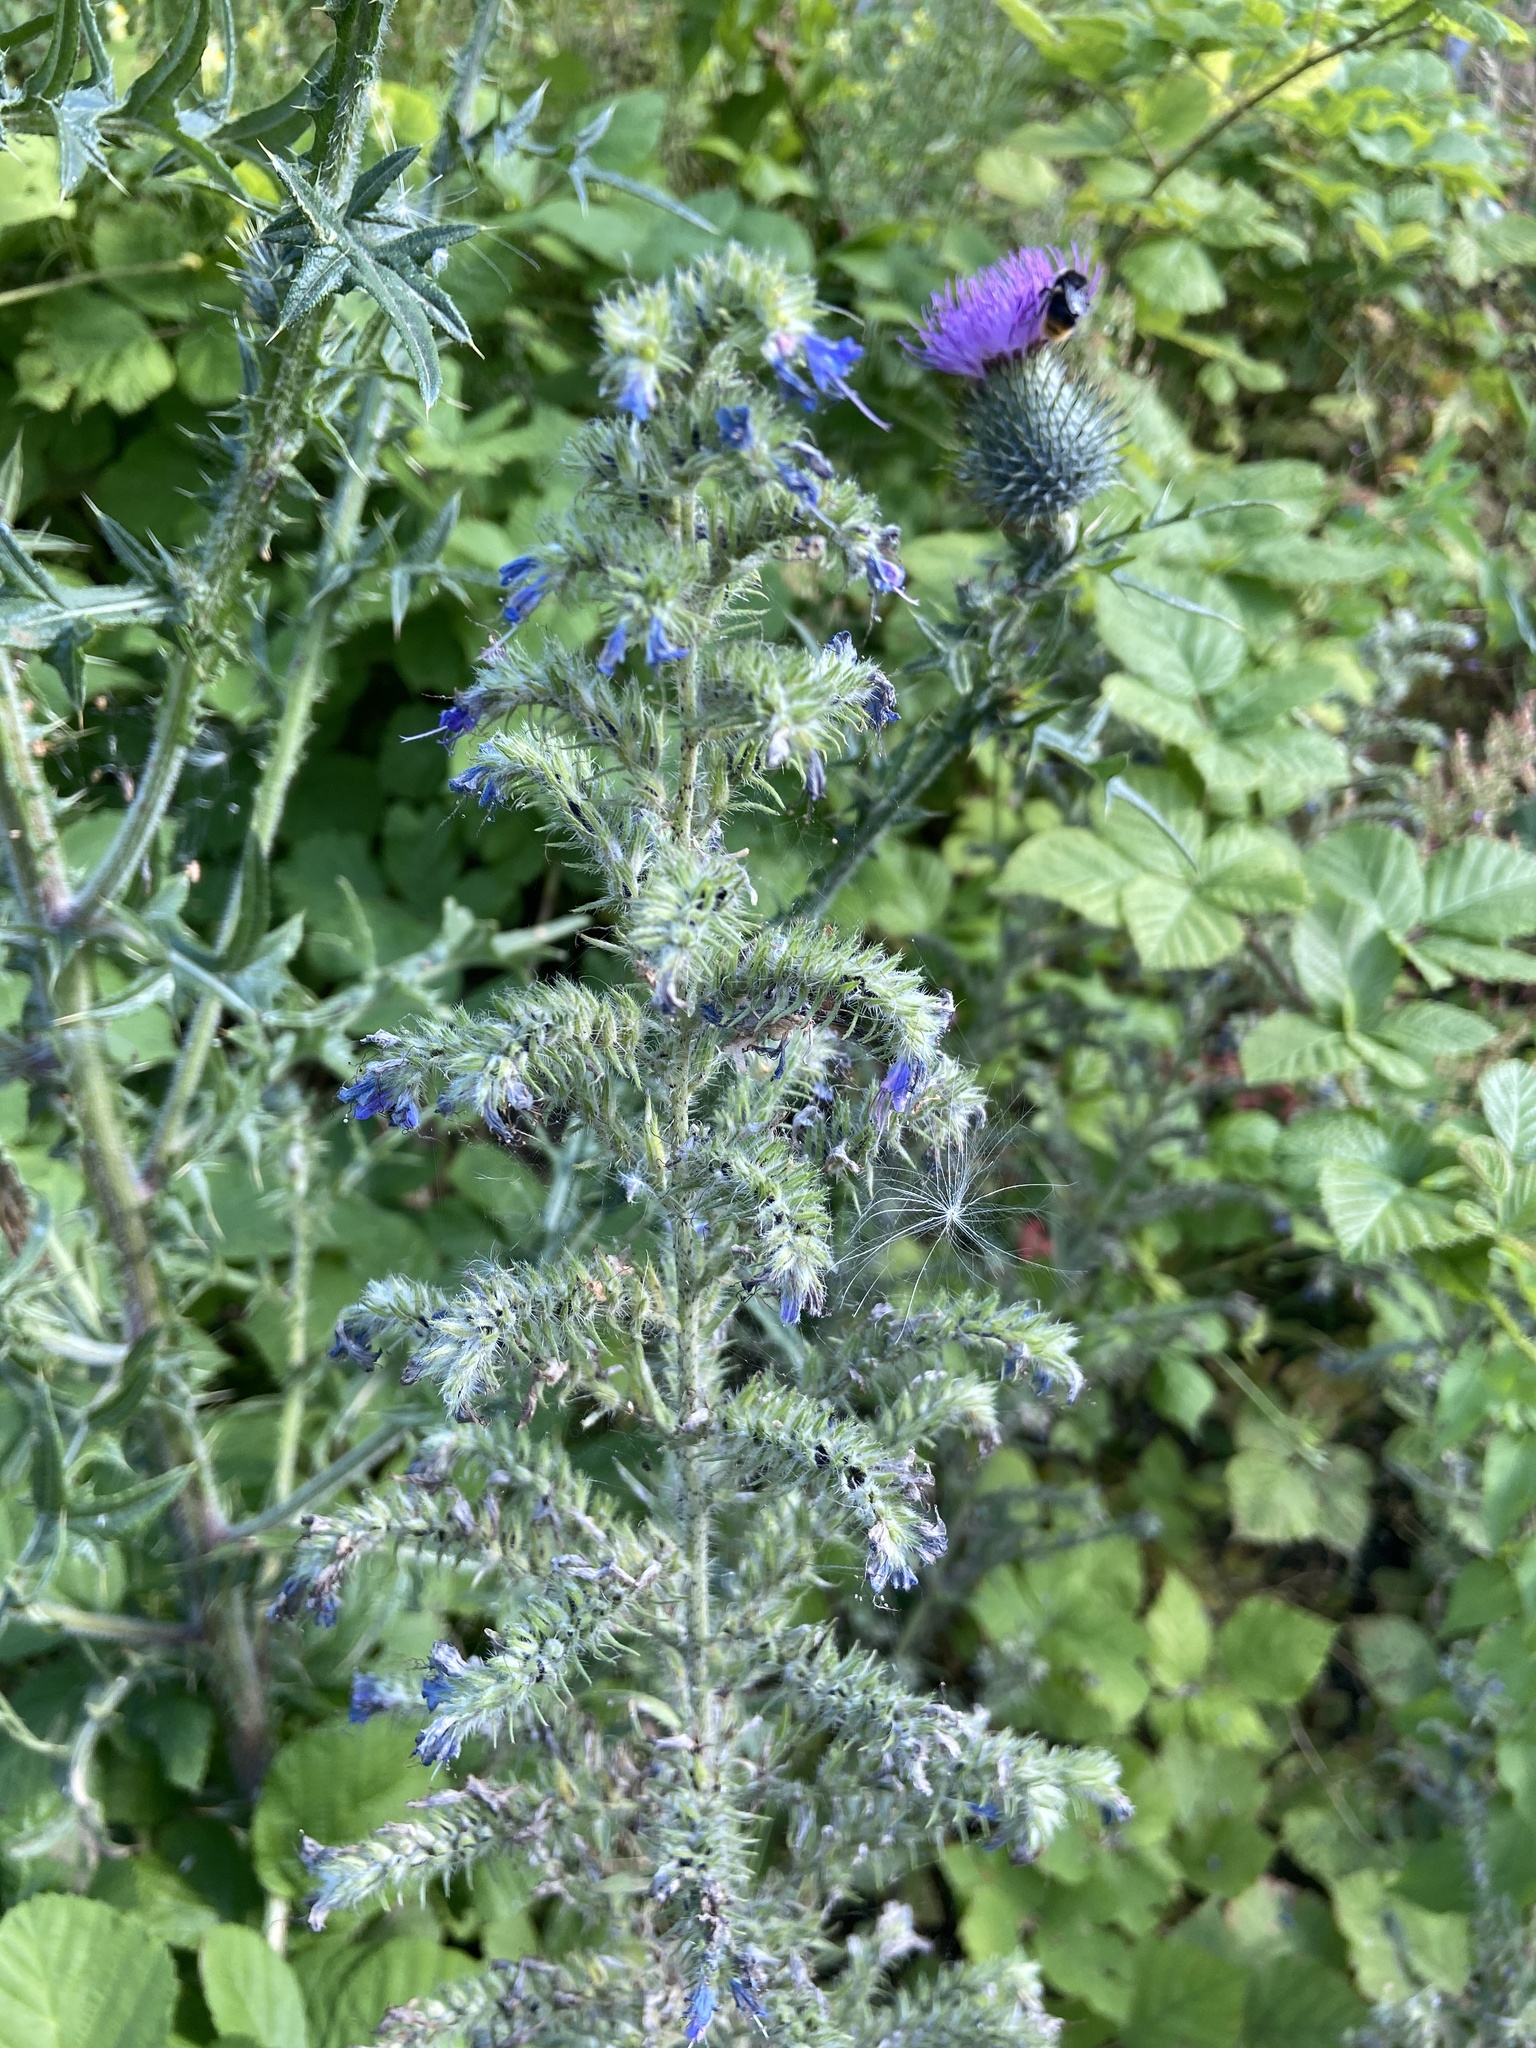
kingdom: Plantae
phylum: Tracheophyta
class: Magnoliopsida
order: Boraginales
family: Boraginaceae
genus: Echium
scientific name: Echium vulgare
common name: Common viper's bugloss
